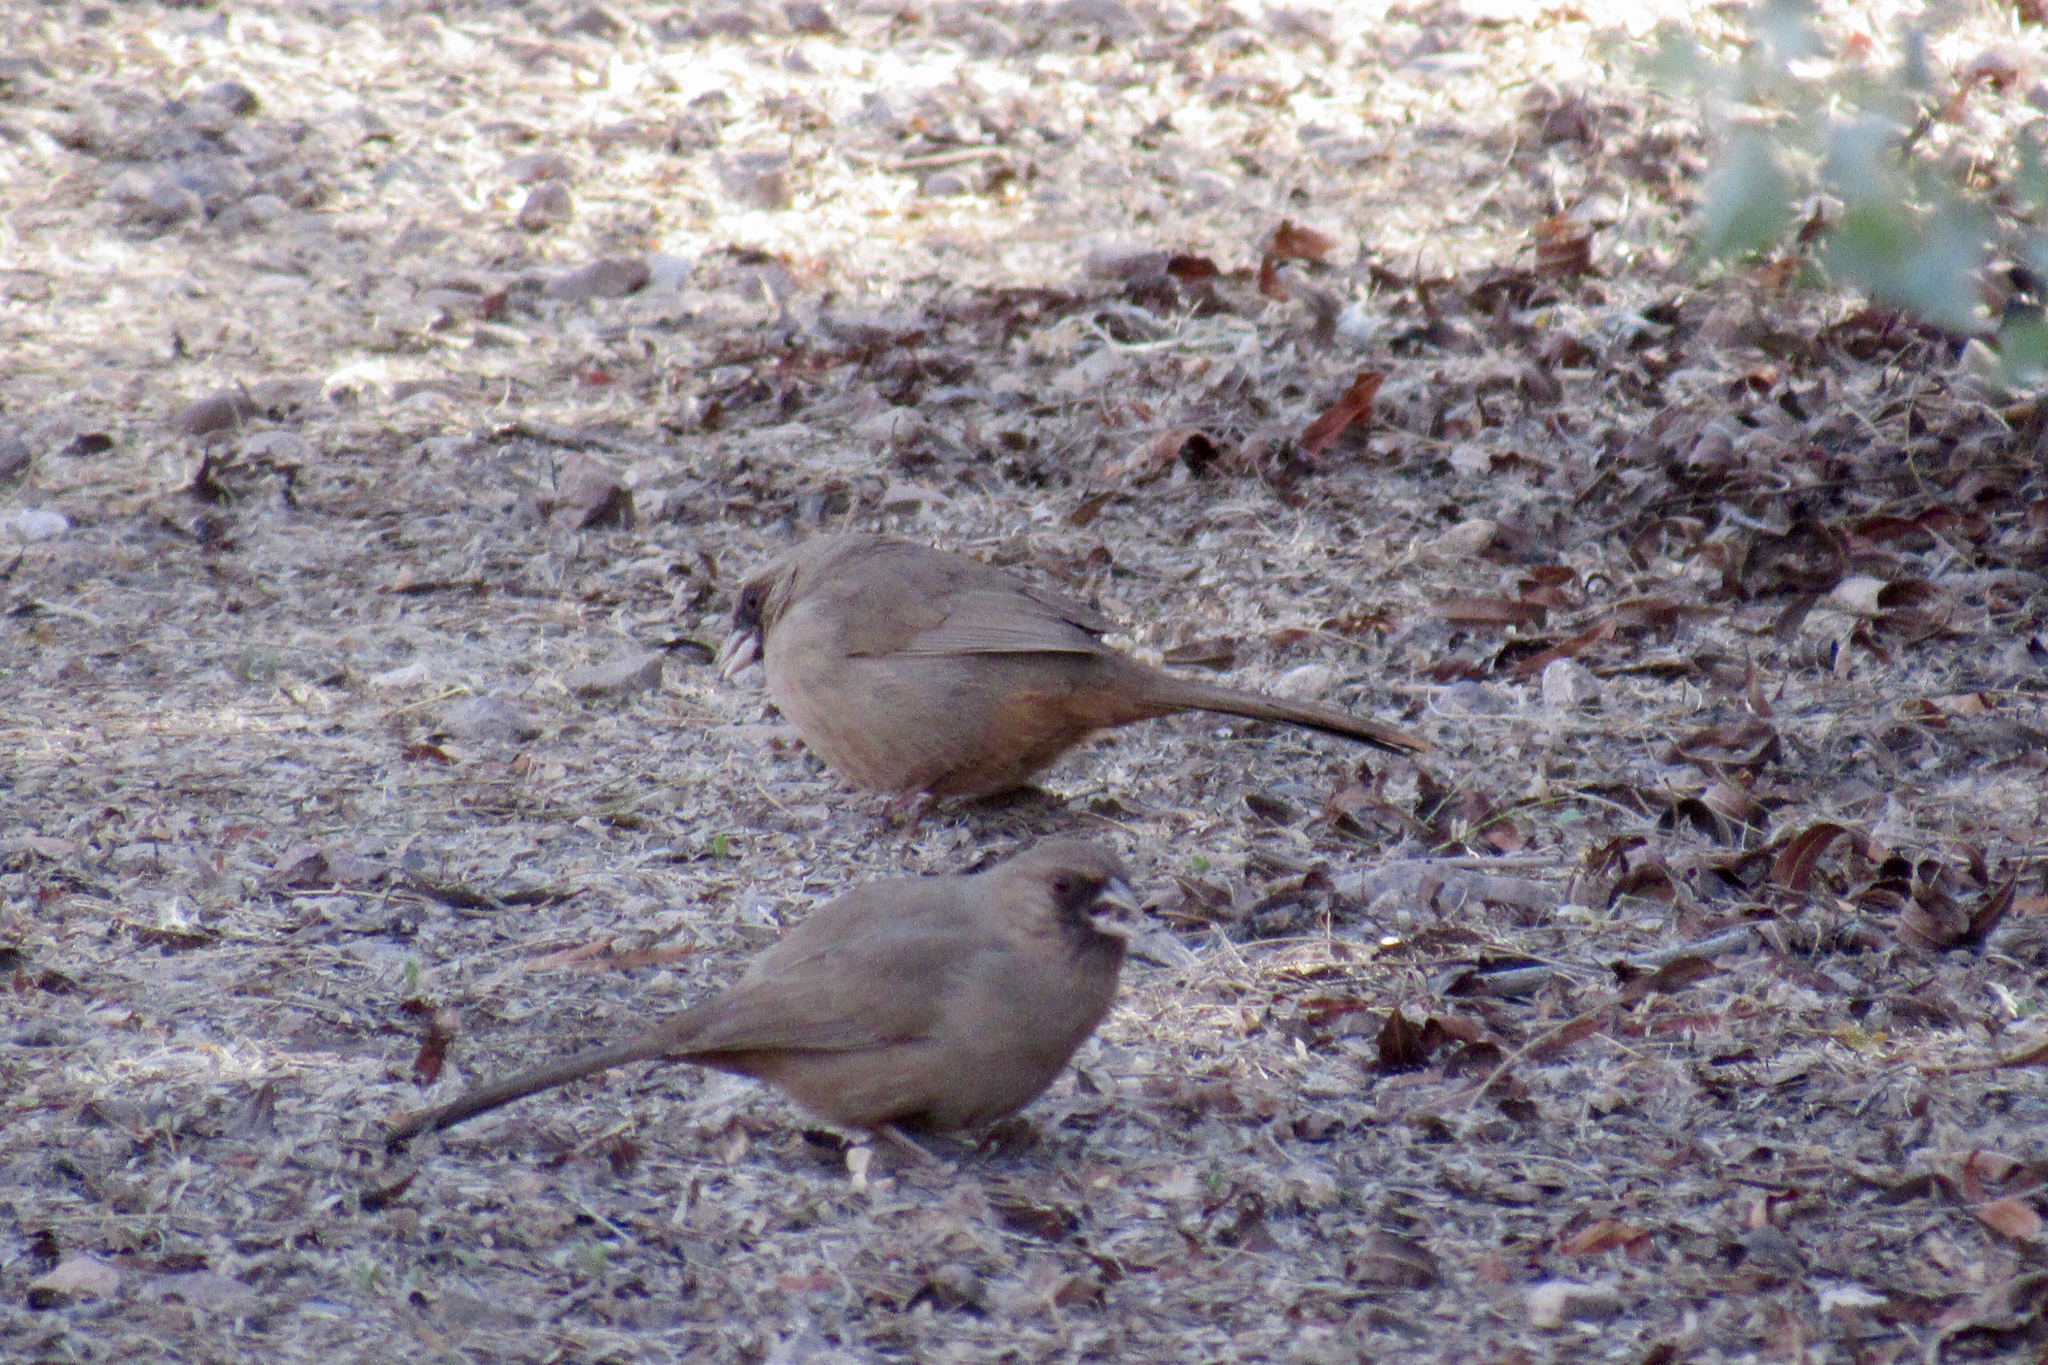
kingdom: Animalia
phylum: Chordata
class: Aves
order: Passeriformes
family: Passerellidae
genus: Melozone
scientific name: Melozone aberti
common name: Abert's towhee
